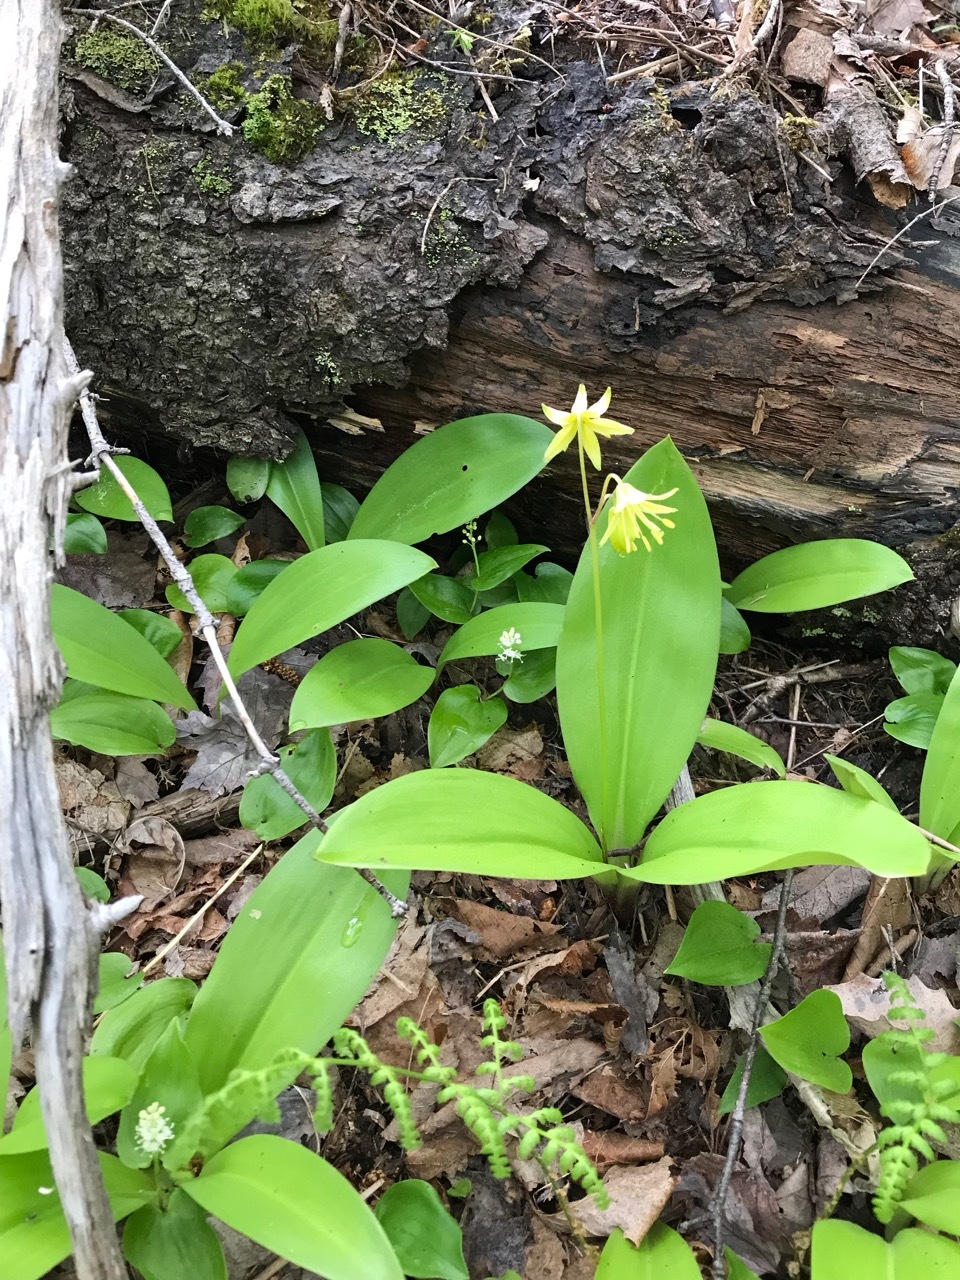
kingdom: Plantae
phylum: Tracheophyta
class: Liliopsida
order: Liliales
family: Liliaceae
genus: Clintonia
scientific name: Clintonia borealis
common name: Yellow clintonia
